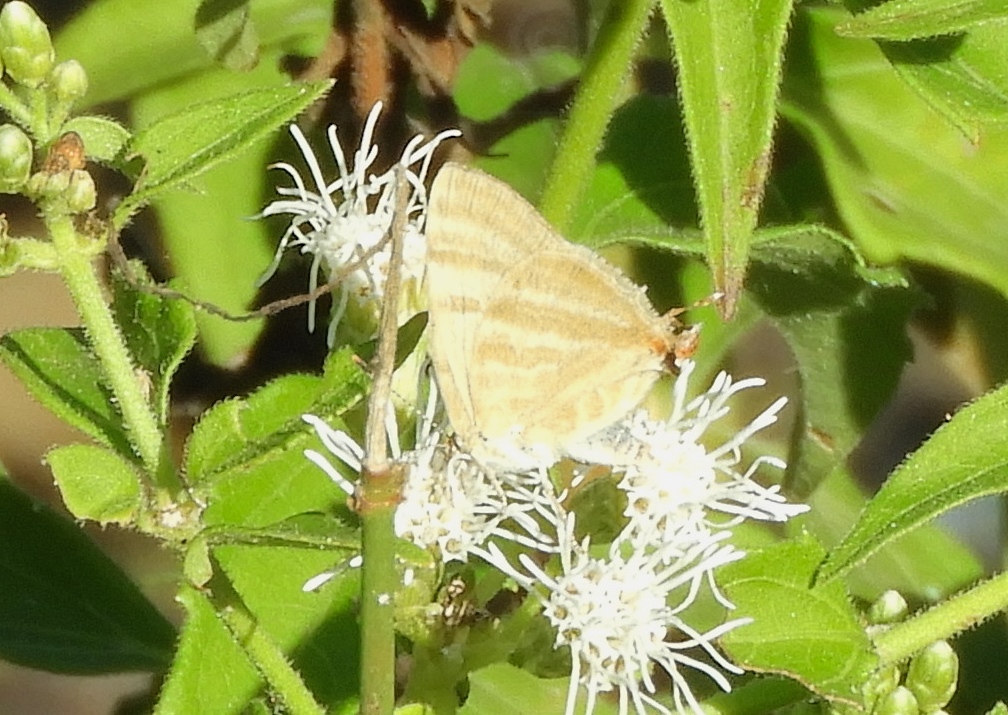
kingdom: Animalia
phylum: Arthropoda
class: Insecta
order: Lepidoptera
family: Lycaenidae
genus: Dolymorpha
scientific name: Dolymorpha jada
